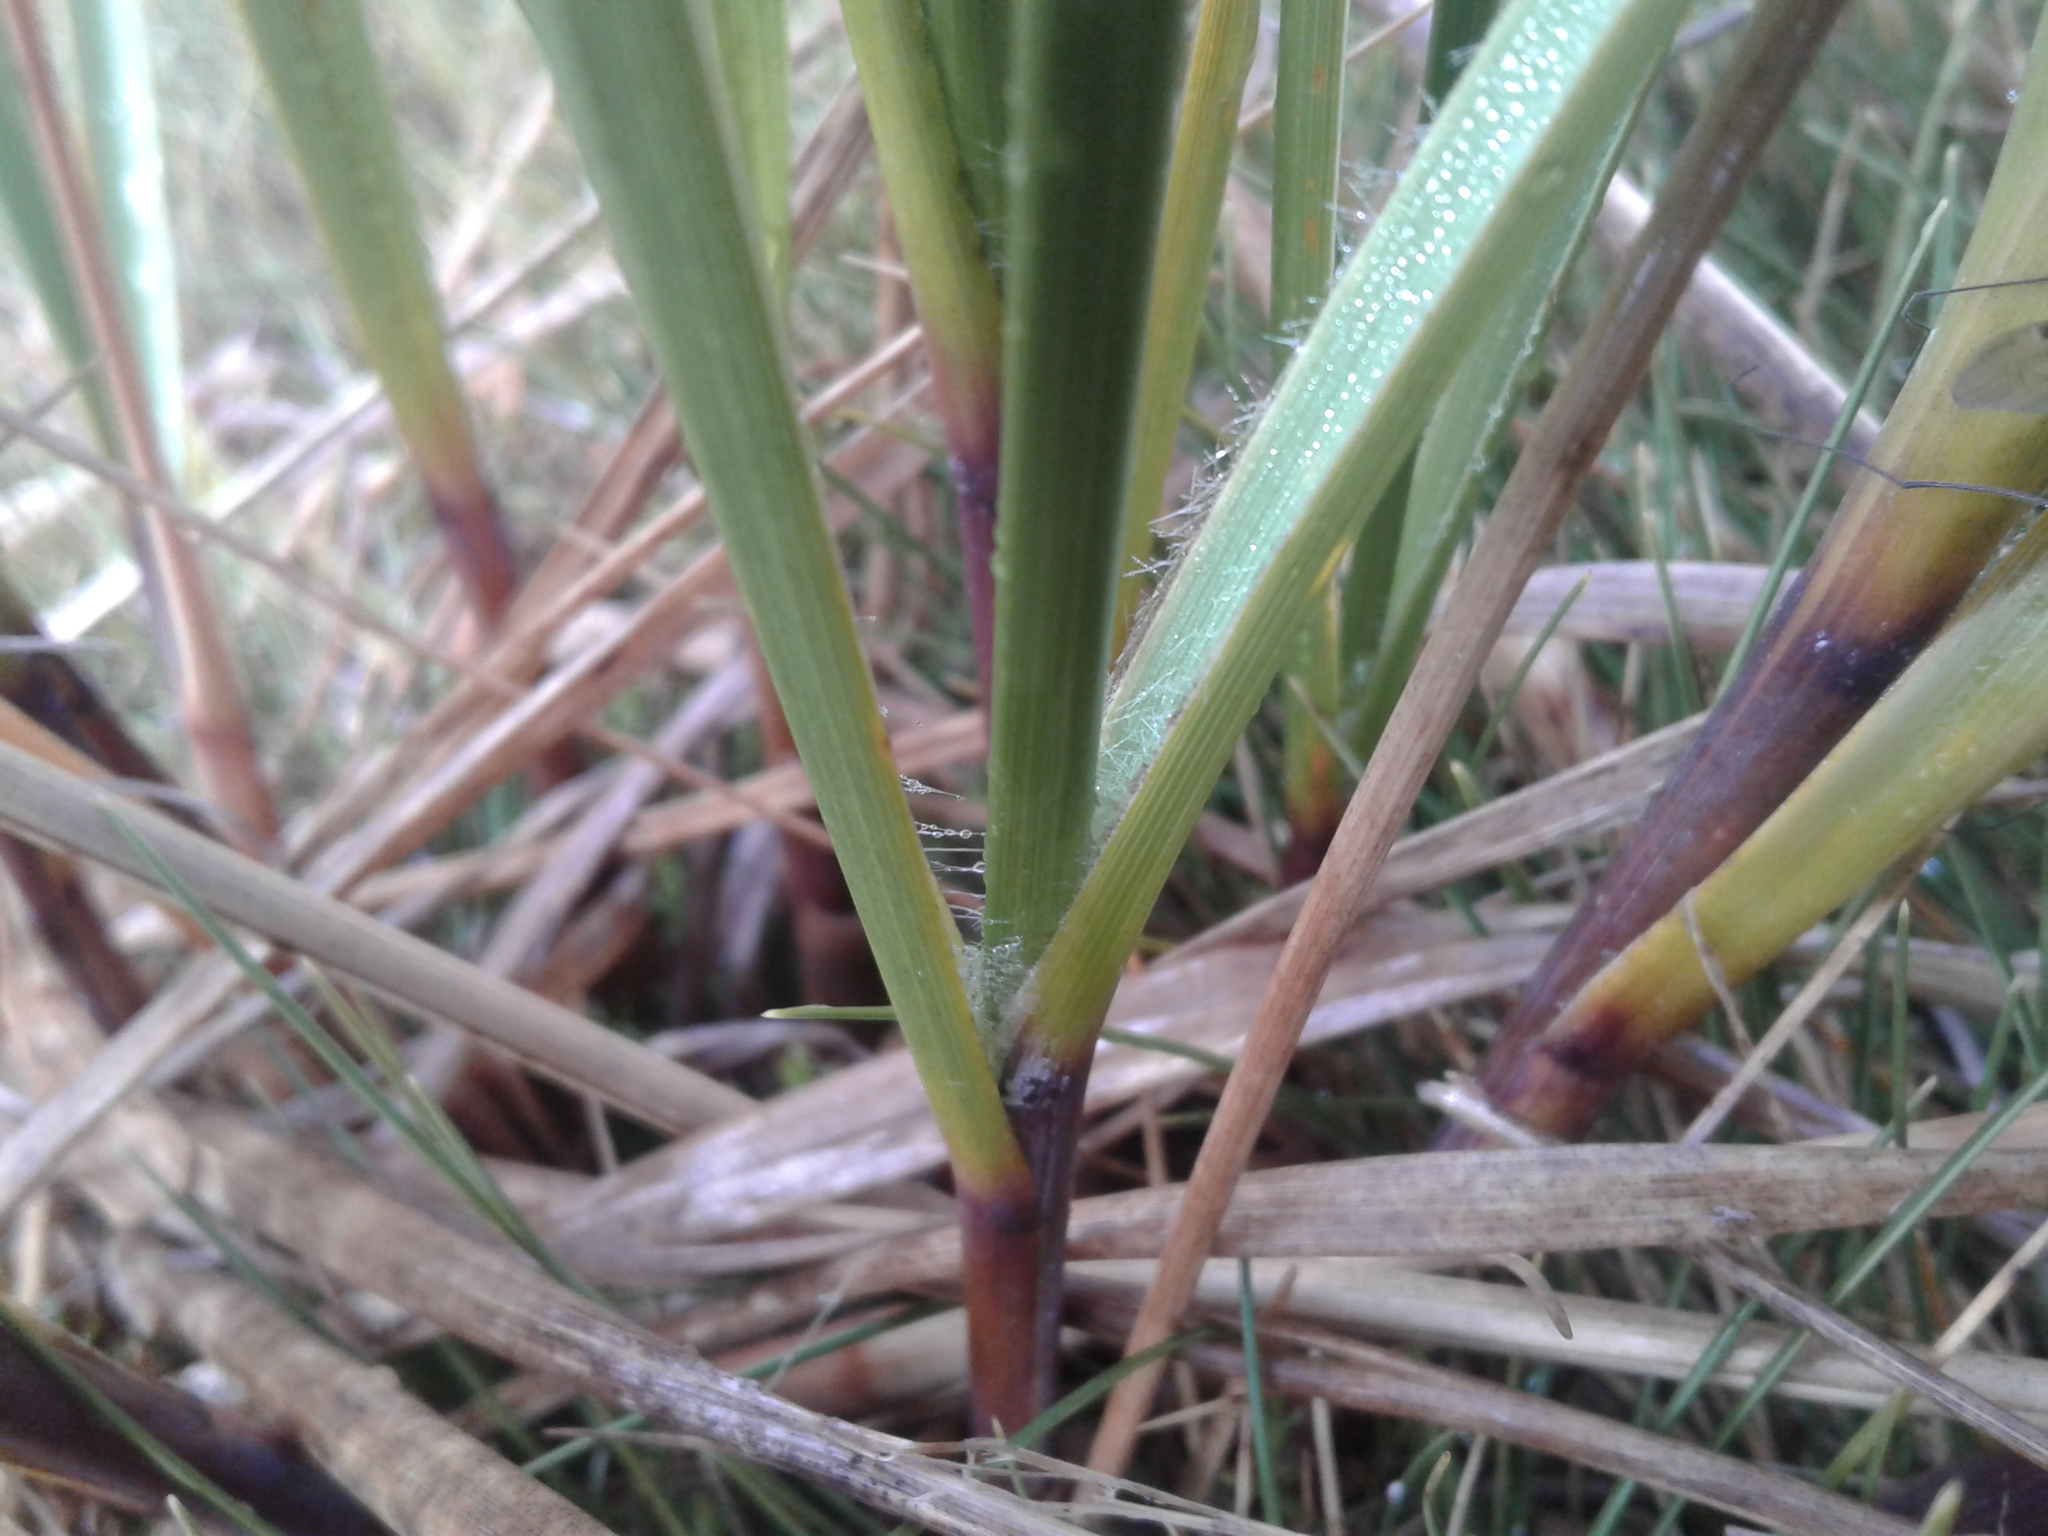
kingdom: Plantae
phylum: Tracheophyta
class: Liliopsida
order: Poales
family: Poaceae
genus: Chionochloa
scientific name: Chionochloa flavescens
